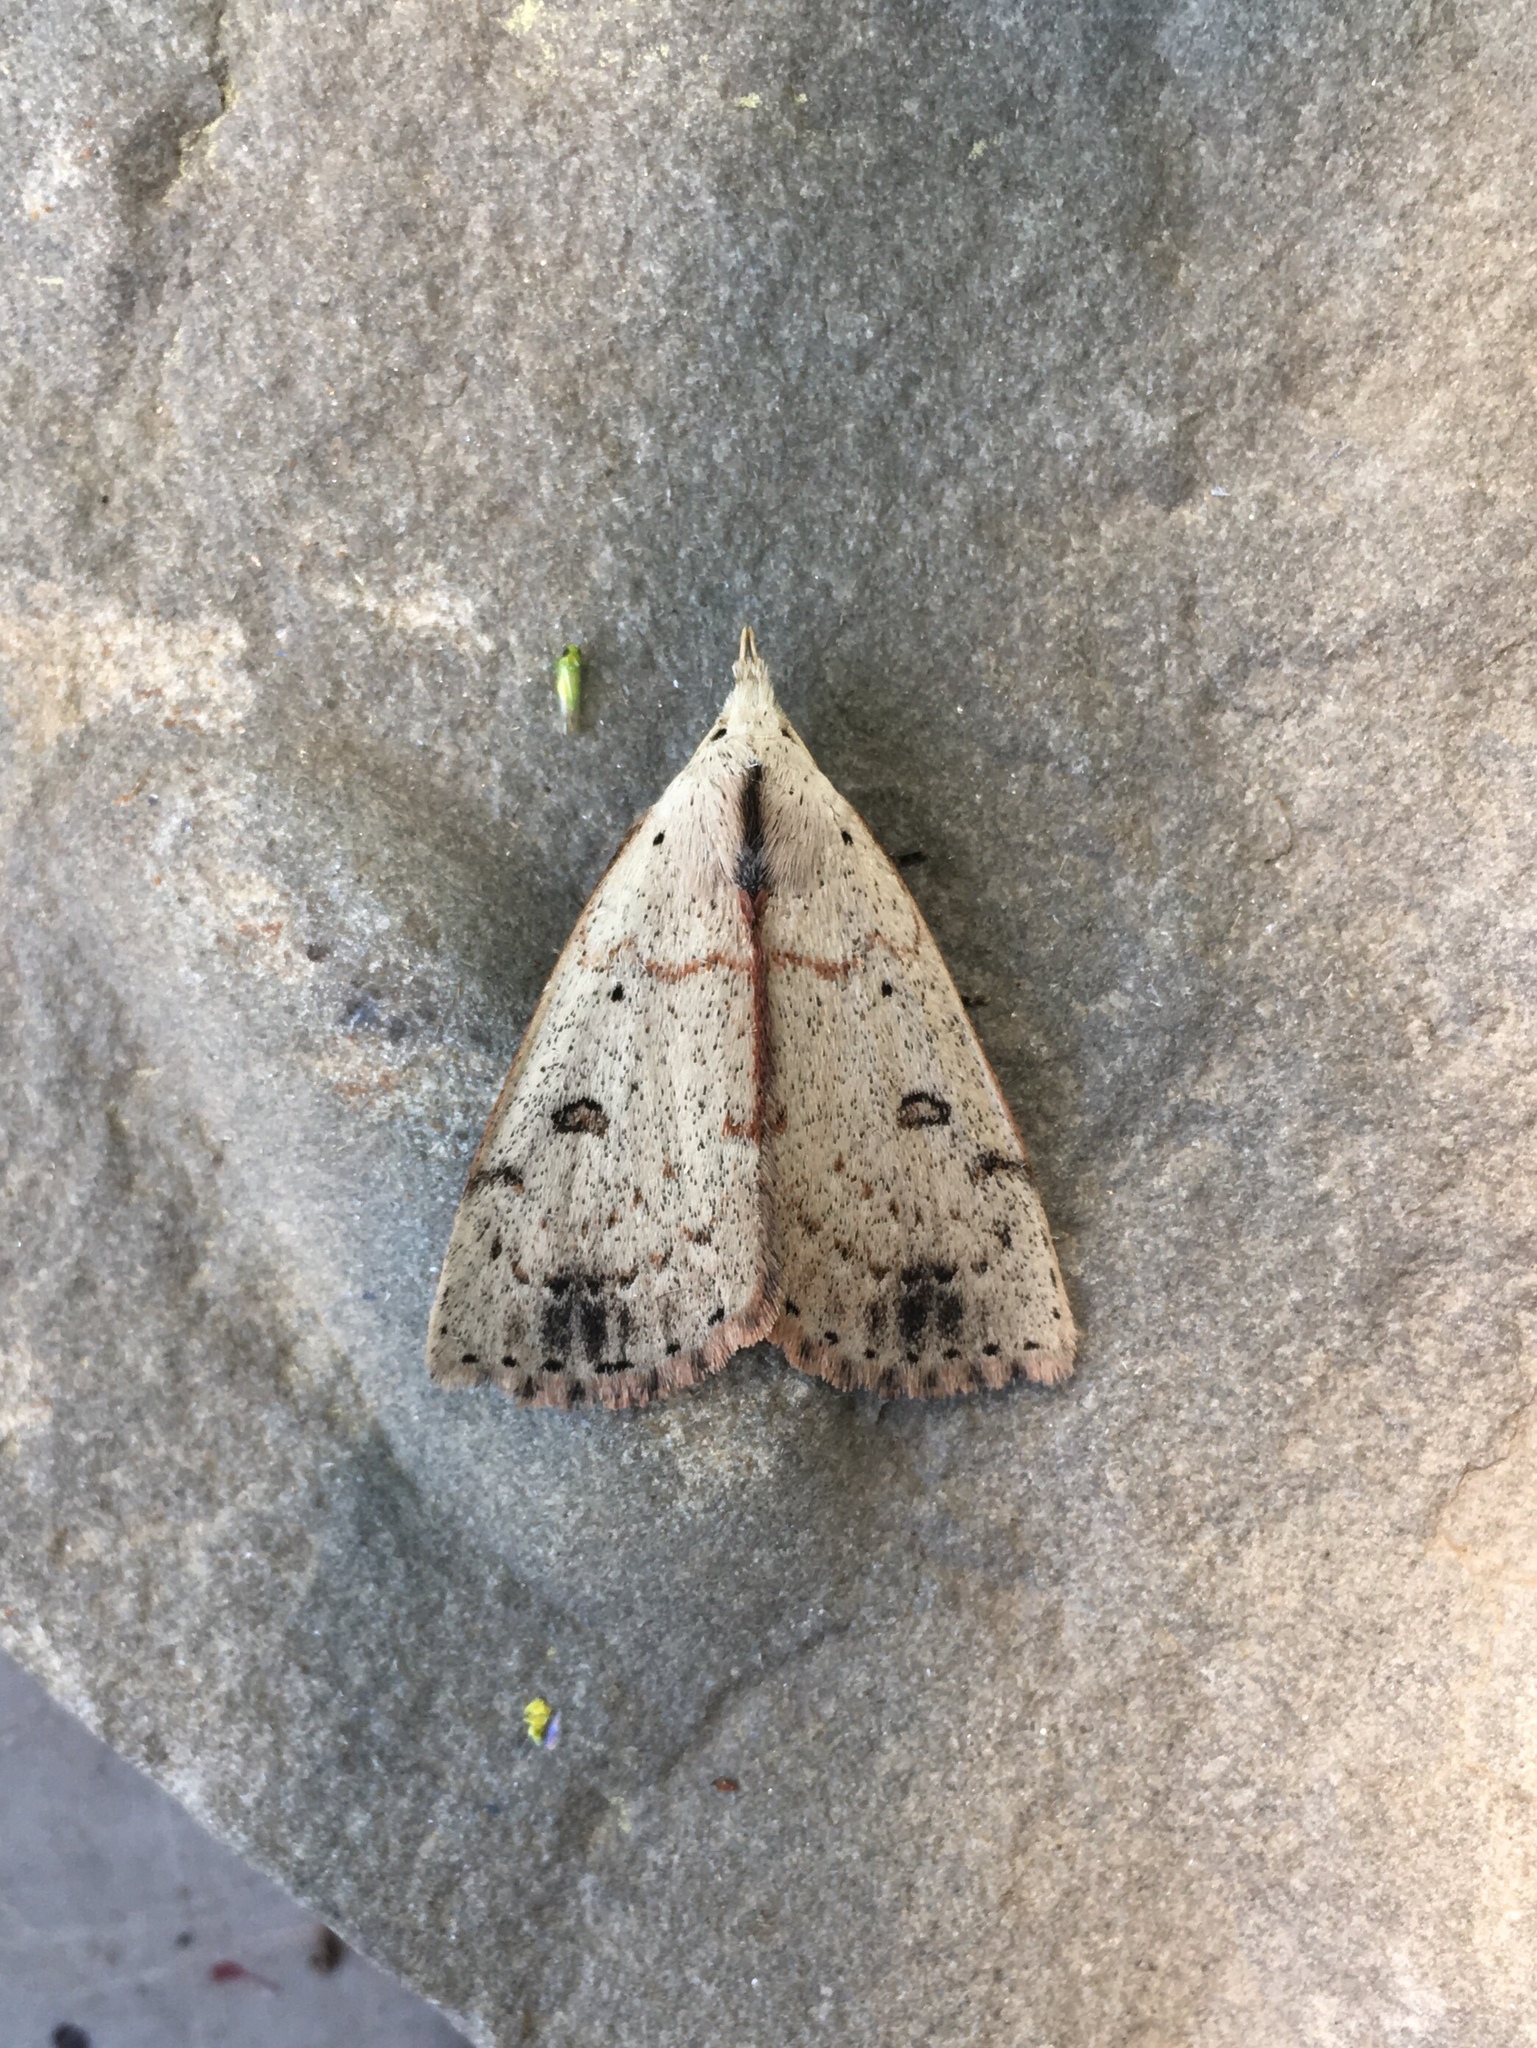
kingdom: Animalia
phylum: Arthropoda
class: Insecta
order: Lepidoptera
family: Erebidae
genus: Scolecocampa
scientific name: Scolecocampa liburna
